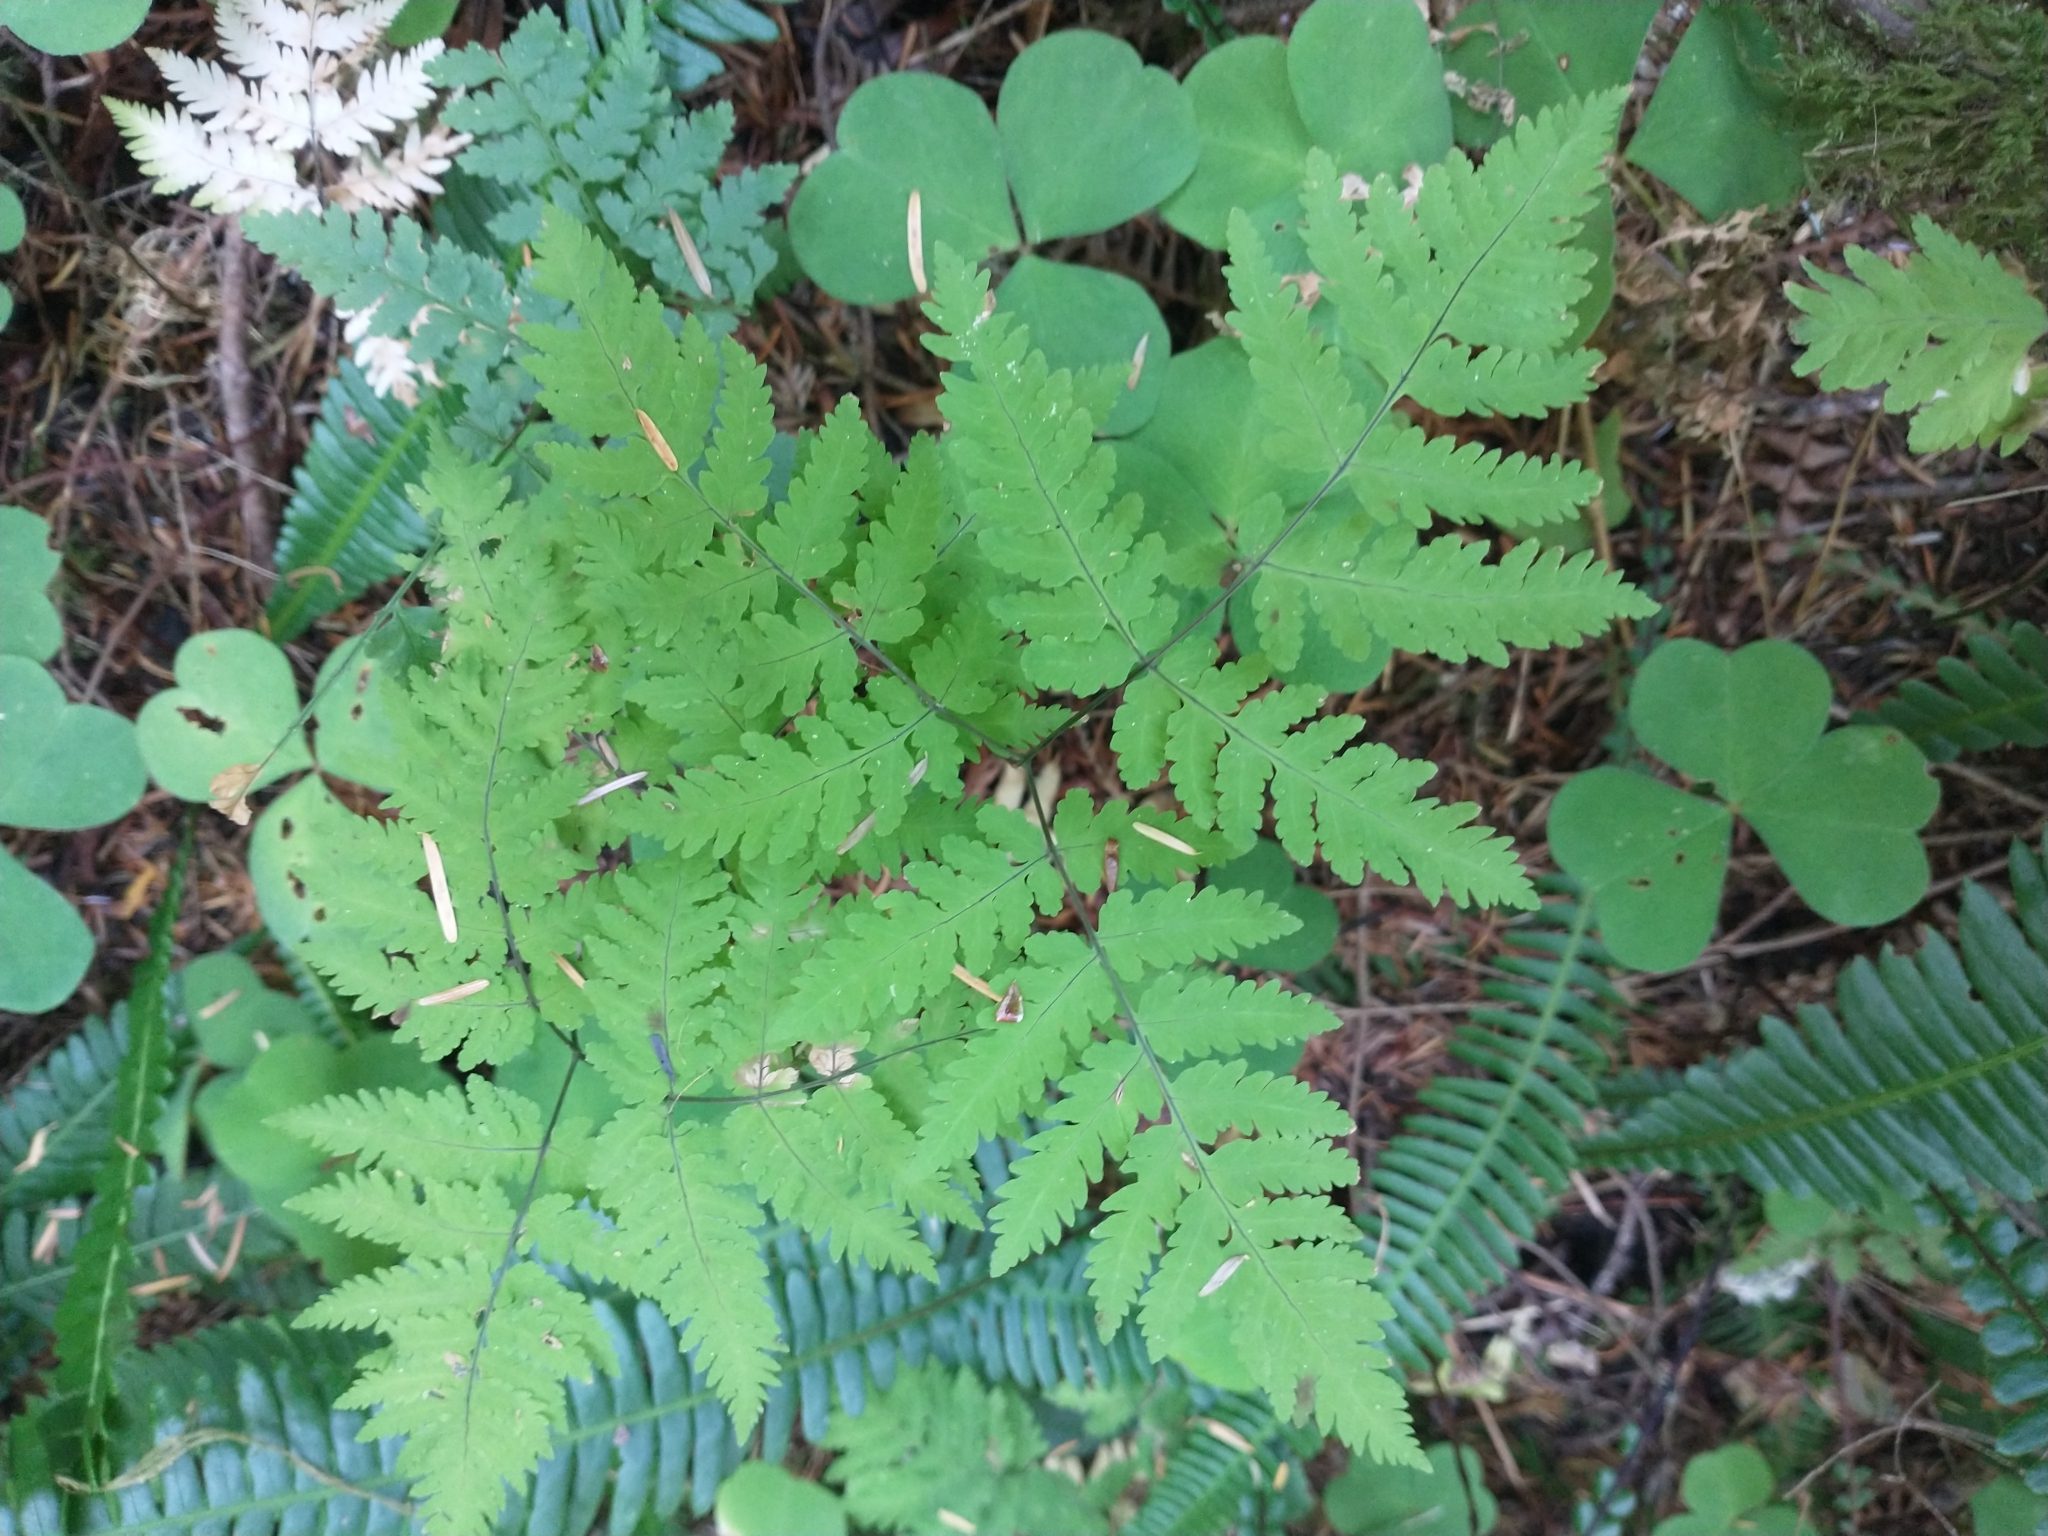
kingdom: Plantae
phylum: Tracheophyta
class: Polypodiopsida
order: Polypodiales
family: Cystopteridaceae
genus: Gymnocarpium
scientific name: Gymnocarpium disjunctum
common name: Western oak fern
